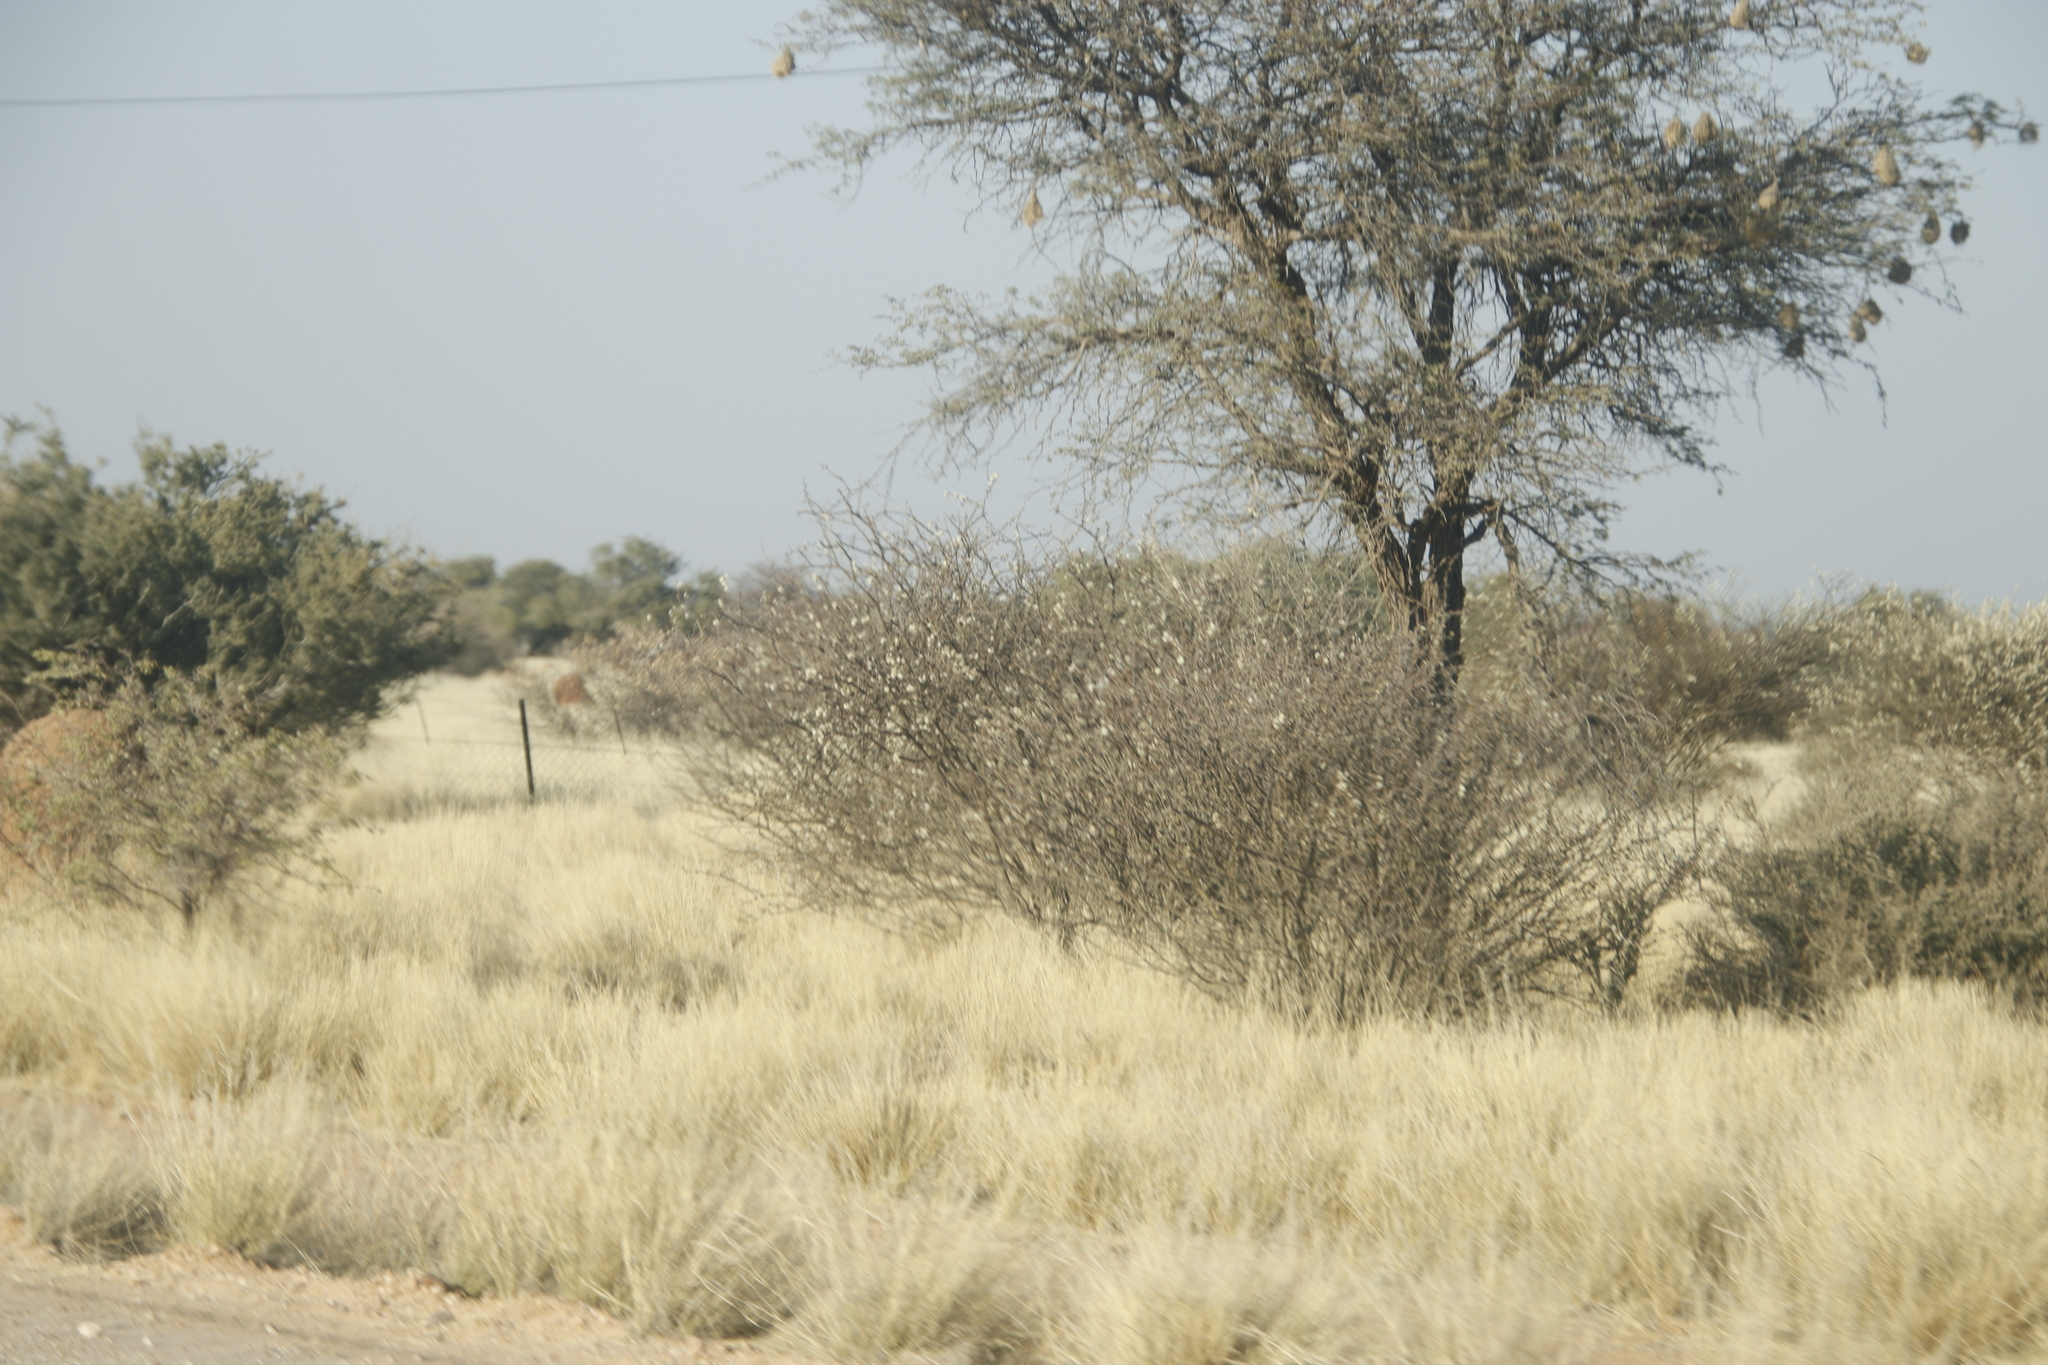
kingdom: Animalia
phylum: Chordata
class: Aves
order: Passeriformes
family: Passeridae
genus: Plocepasser
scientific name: Plocepasser mahali
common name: White-browed sparrow-weaver
